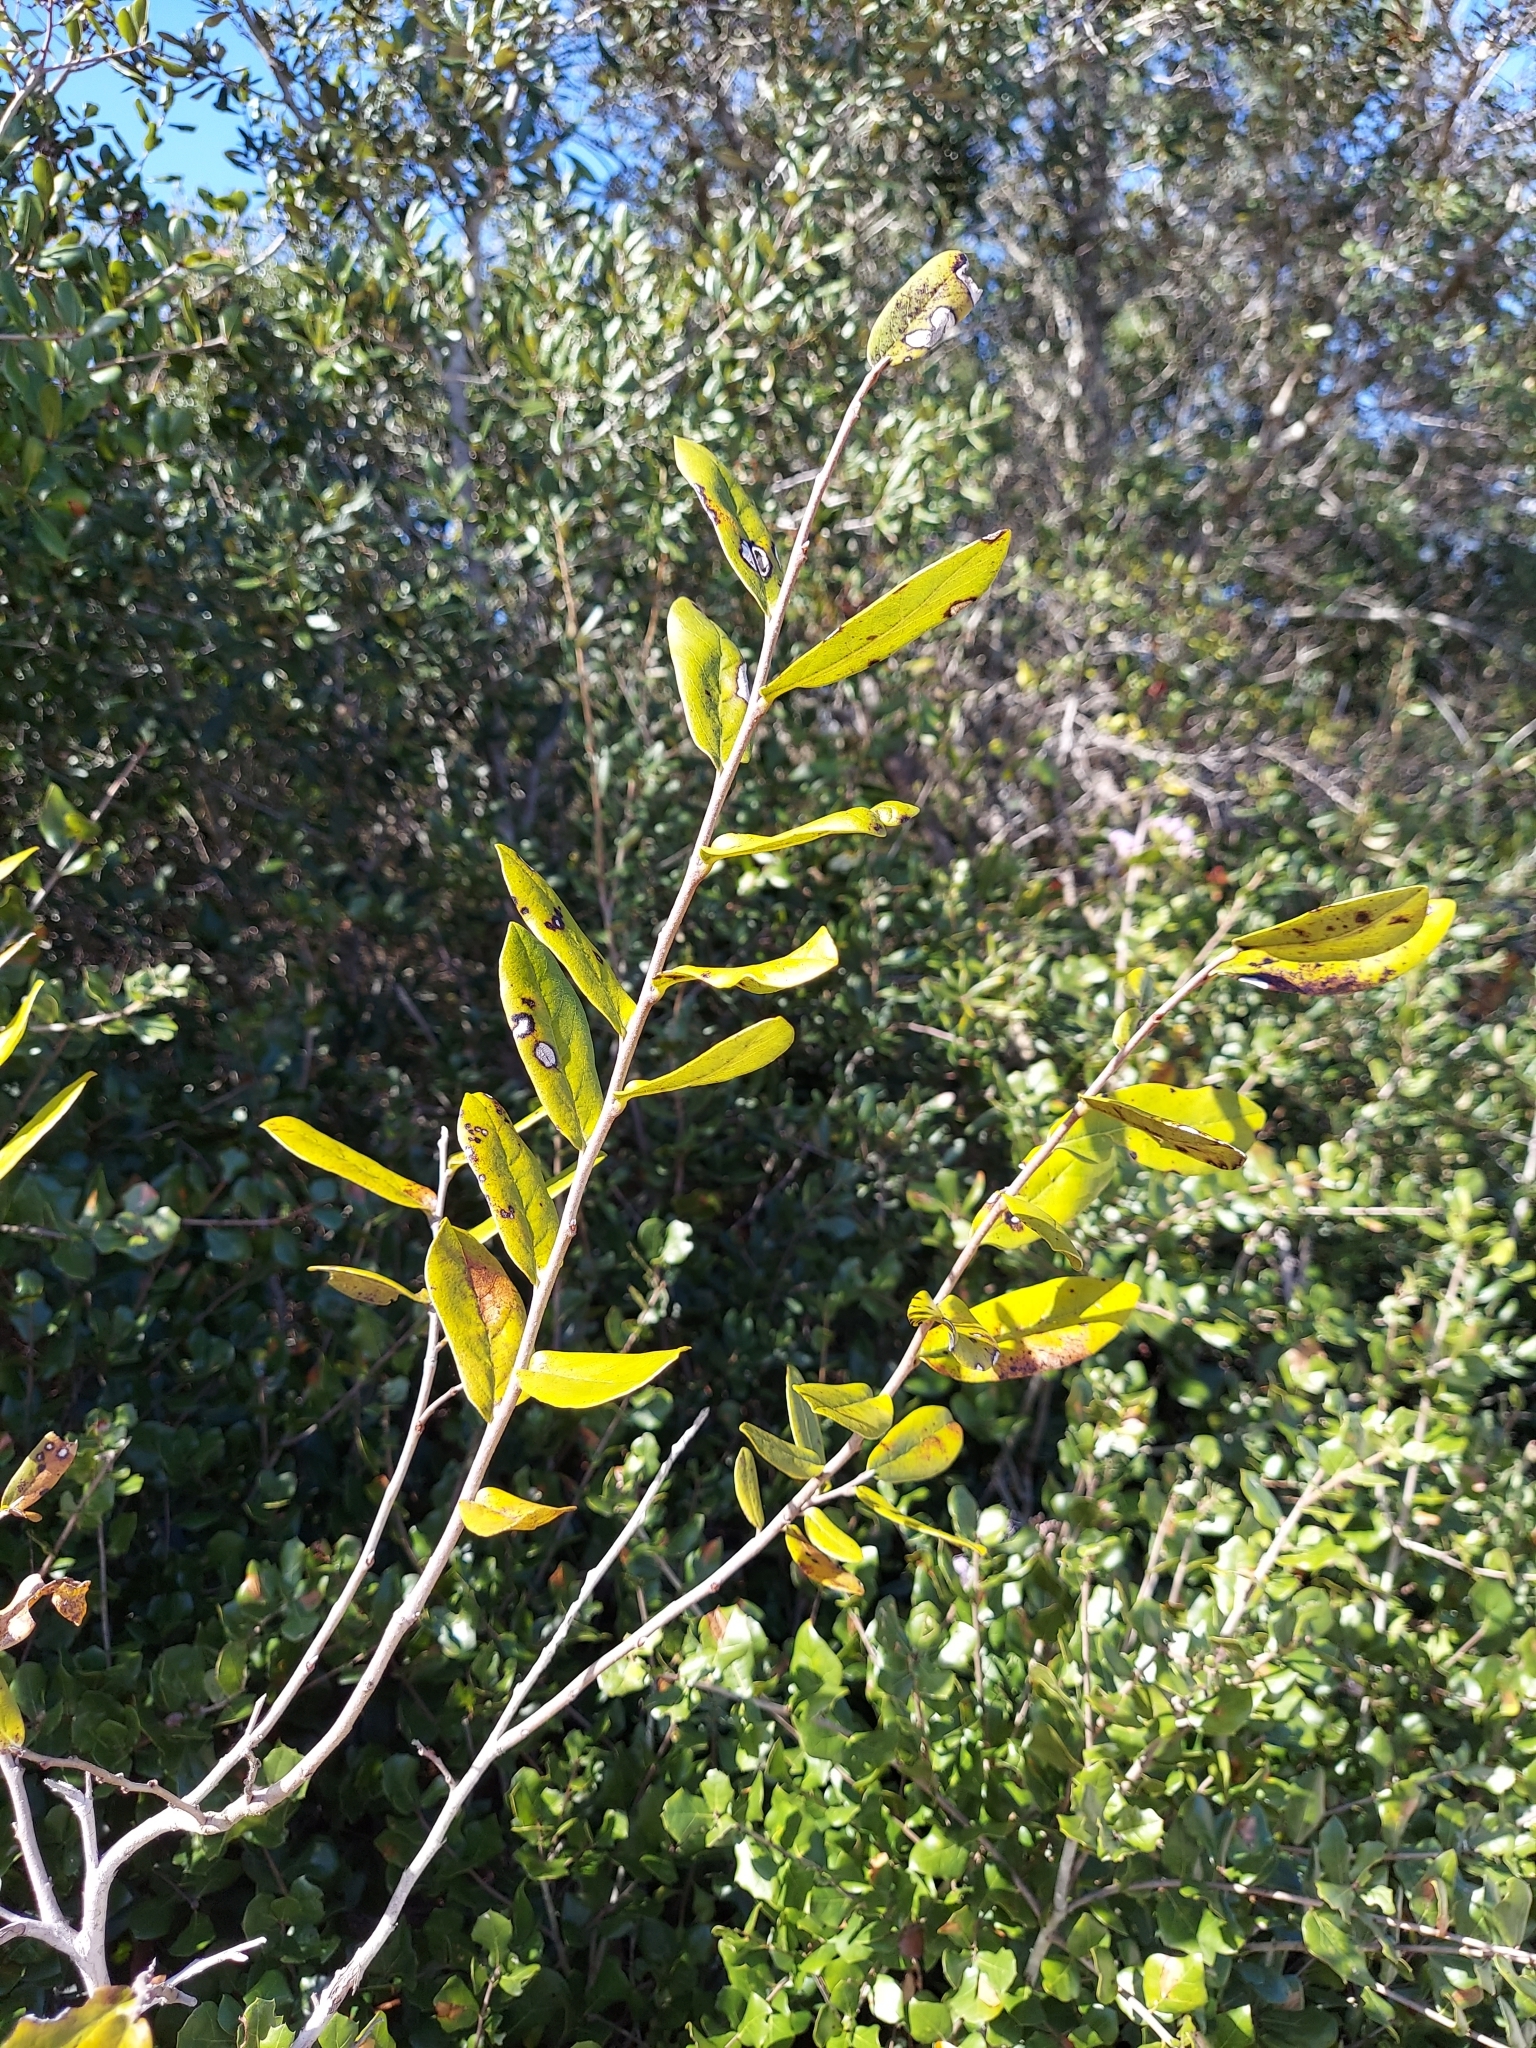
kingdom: Plantae
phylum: Tracheophyta
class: Magnoliopsida
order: Magnoliales
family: Annonaceae
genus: Asimina
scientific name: Asimina obovata
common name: Flag pawpaw
